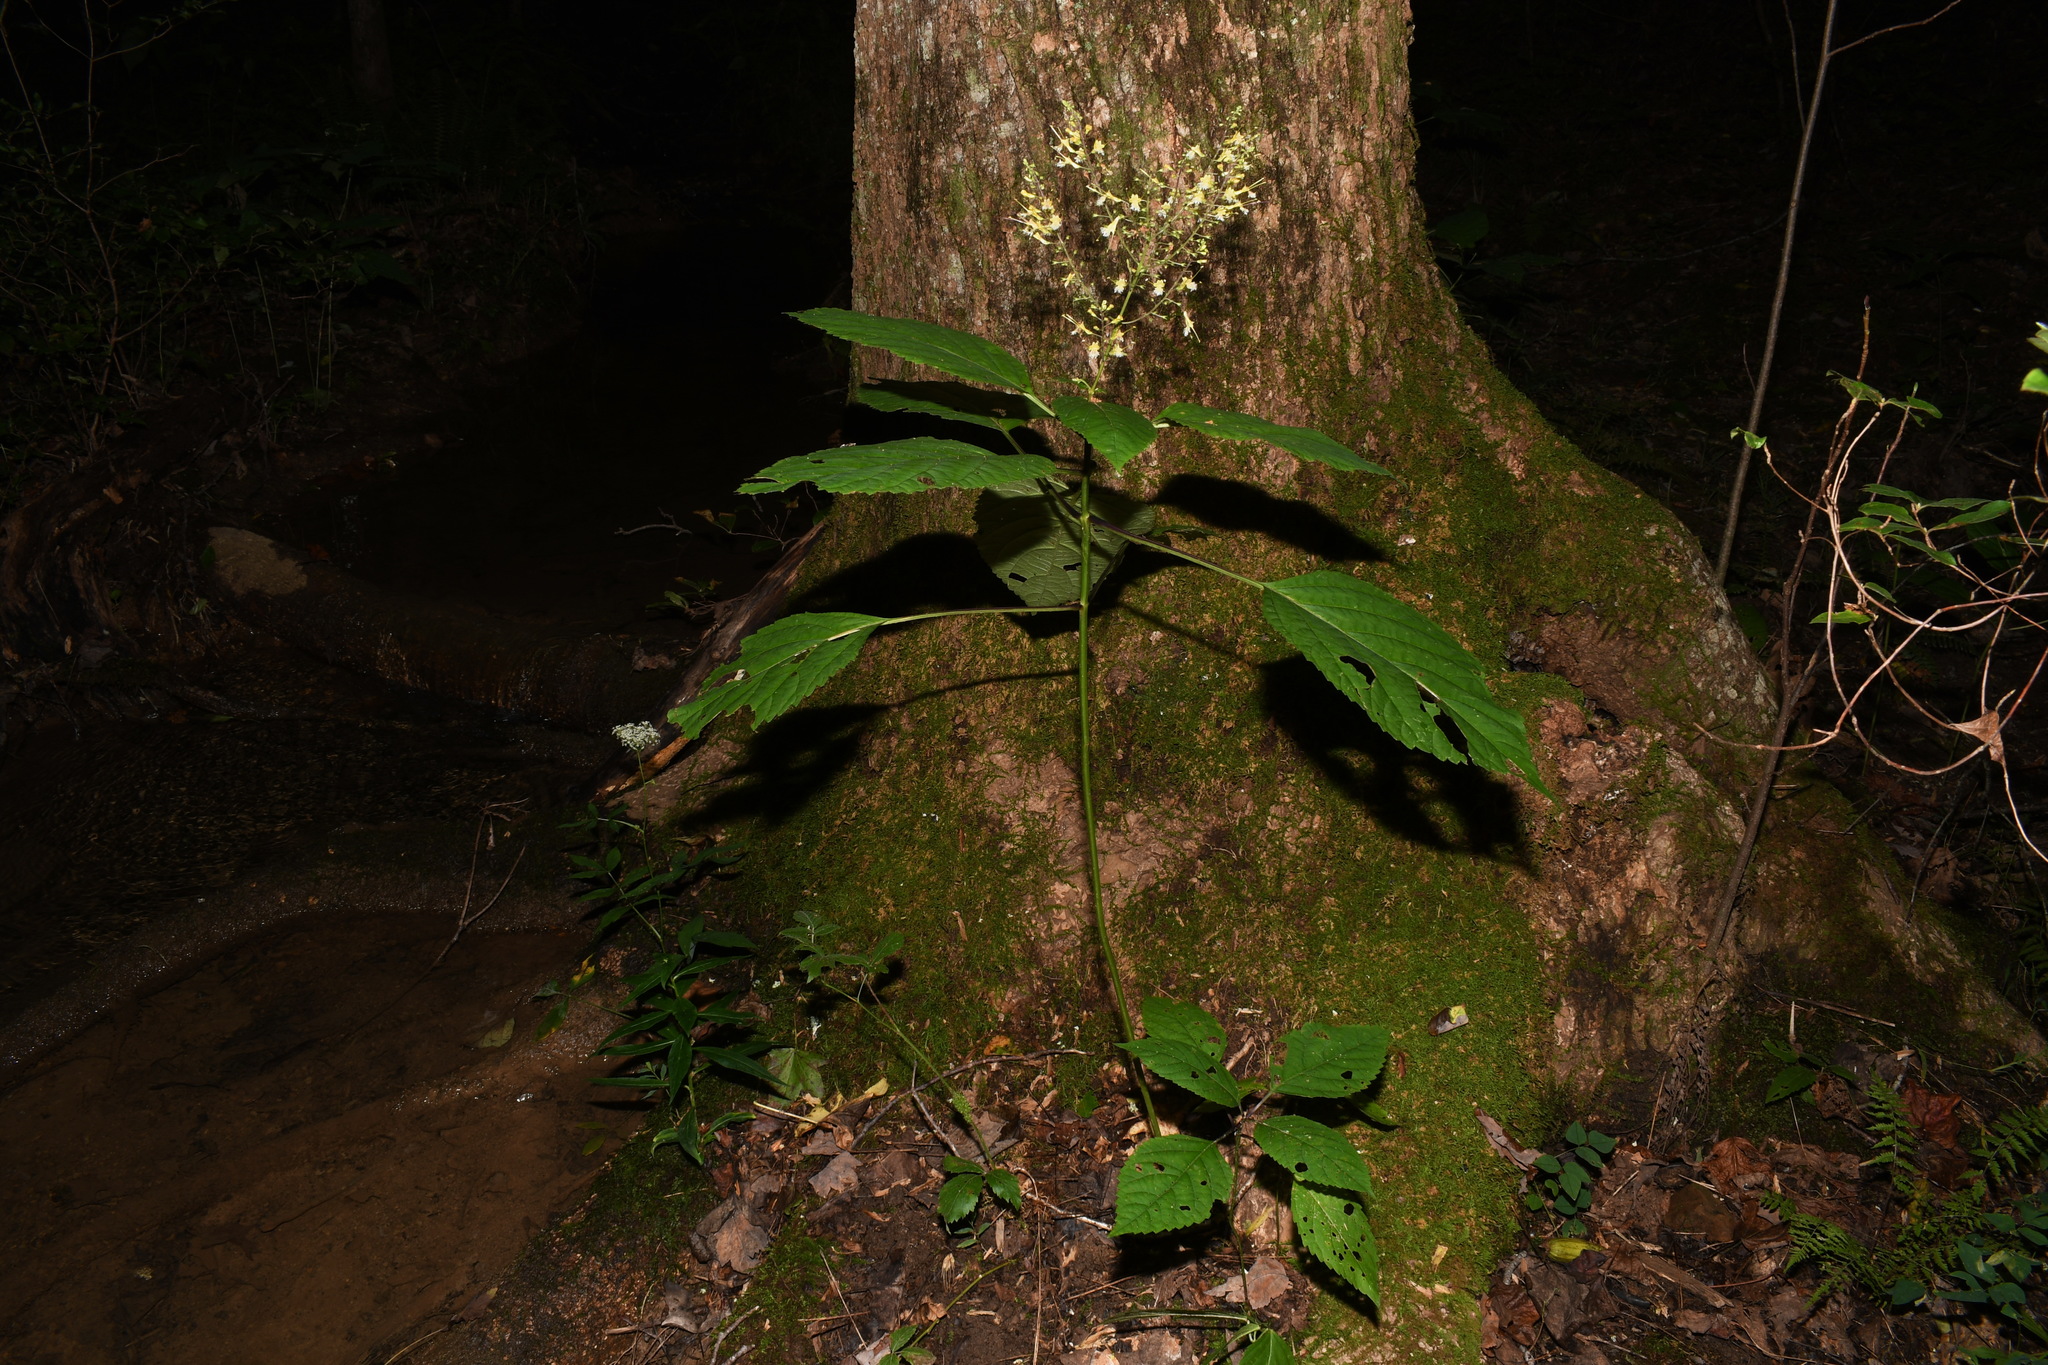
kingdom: Plantae
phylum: Tracheophyta
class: Magnoliopsida
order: Lamiales
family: Lamiaceae
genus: Collinsonia
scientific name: Collinsonia canadensis
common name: Northern horsebalm
